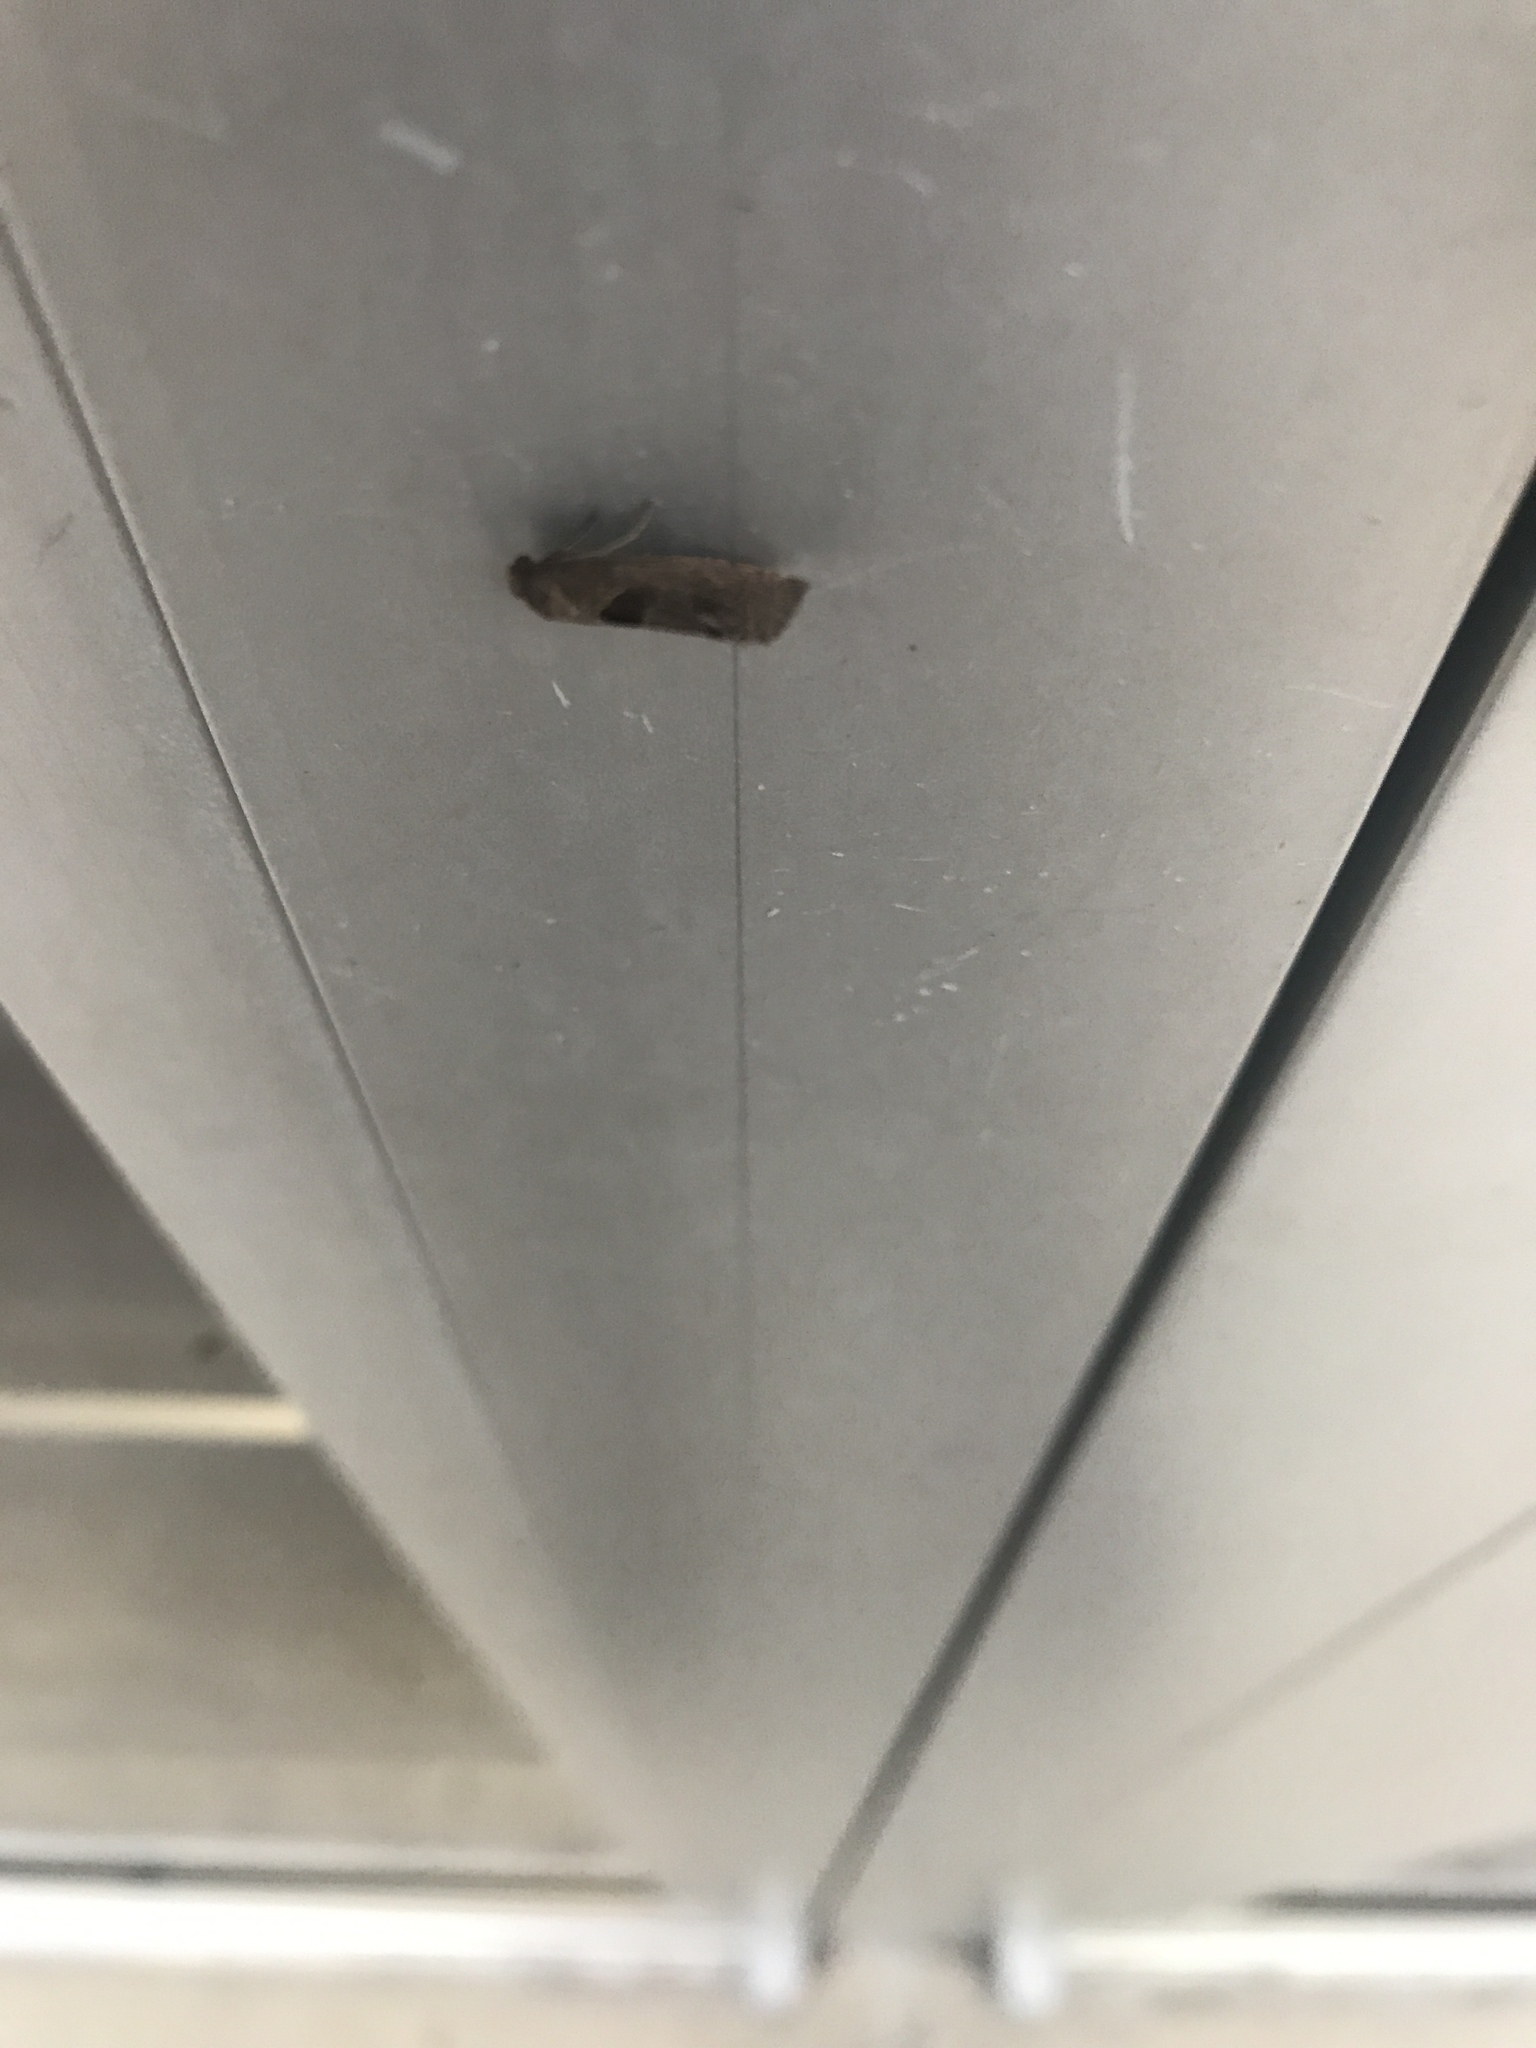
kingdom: Animalia
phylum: Arthropoda
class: Insecta
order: Lepidoptera
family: Tortricidae
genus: Pelochrista
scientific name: Pelochrista dorsisignatana
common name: Triangle-backed pelochrista moth
